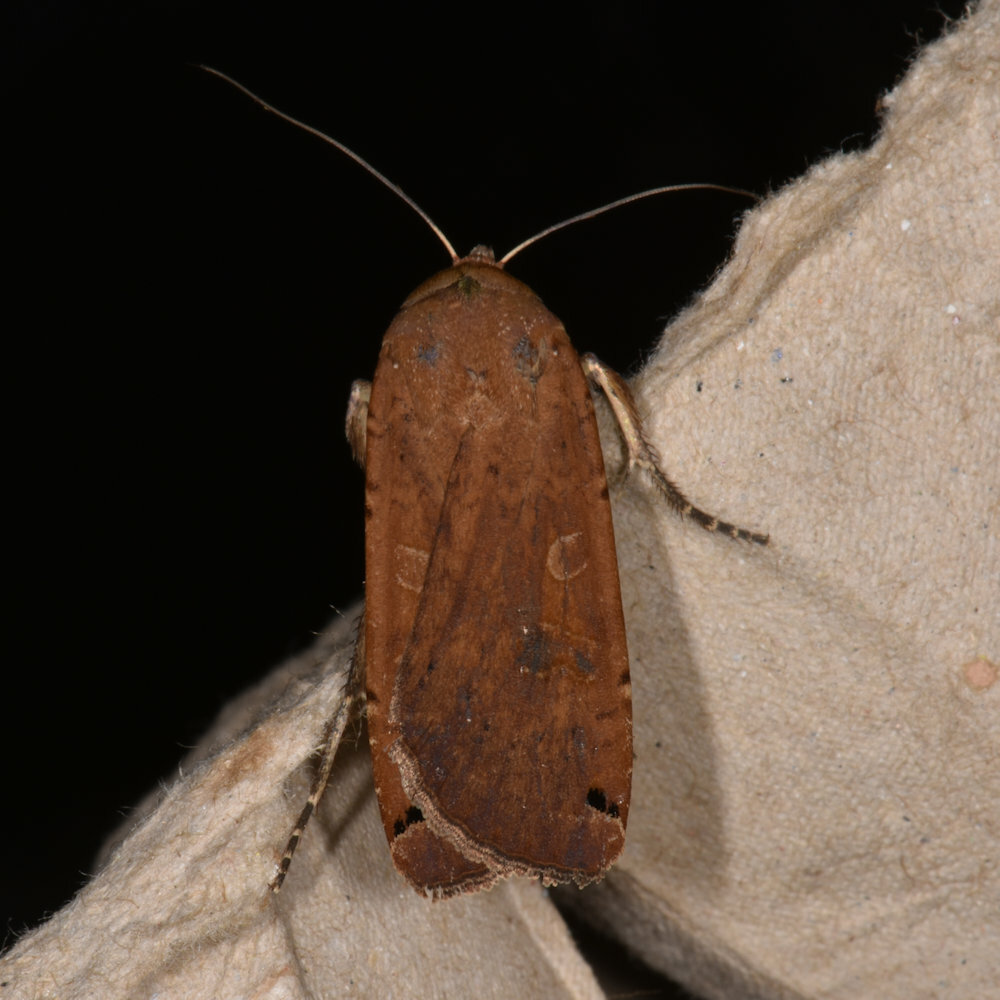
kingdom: Animalia
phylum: Arthropoda
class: Insecta
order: Lepidoptera
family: Noctuidae
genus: Noctua
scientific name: Noctua pronuba
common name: Large yellow underwing
